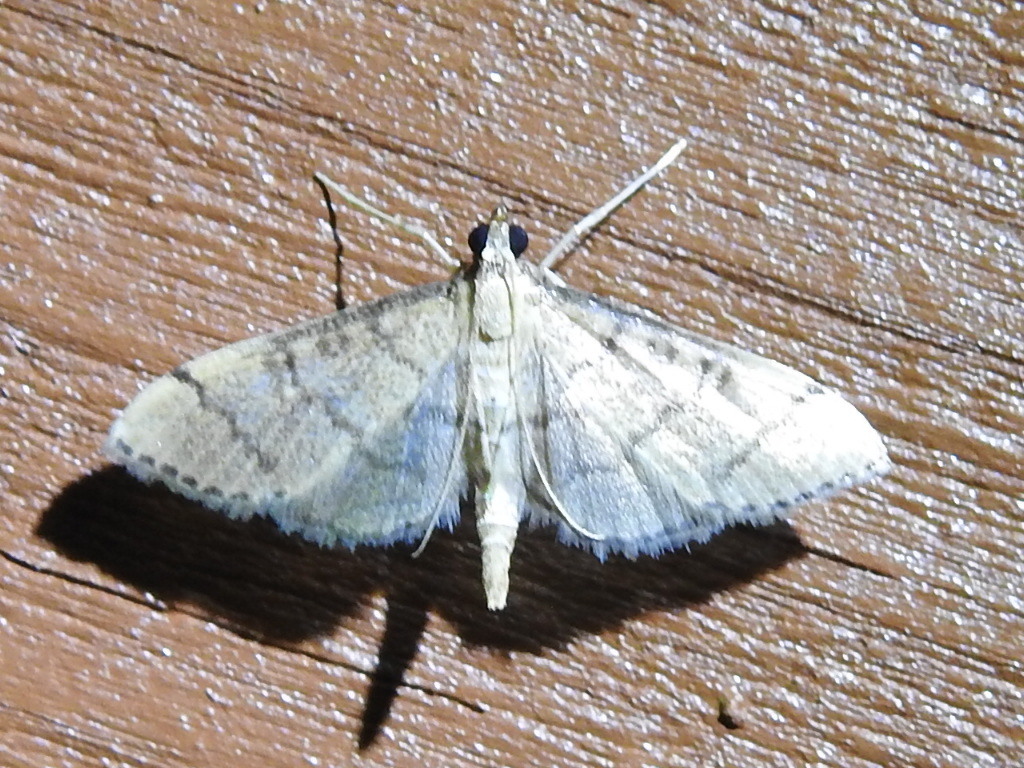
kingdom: Animalia
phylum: Arthropoda
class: Insecta
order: Lepidoptera
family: Crambidae
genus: Lamprosema
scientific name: Lamprosema Blepharomastix ranalis
